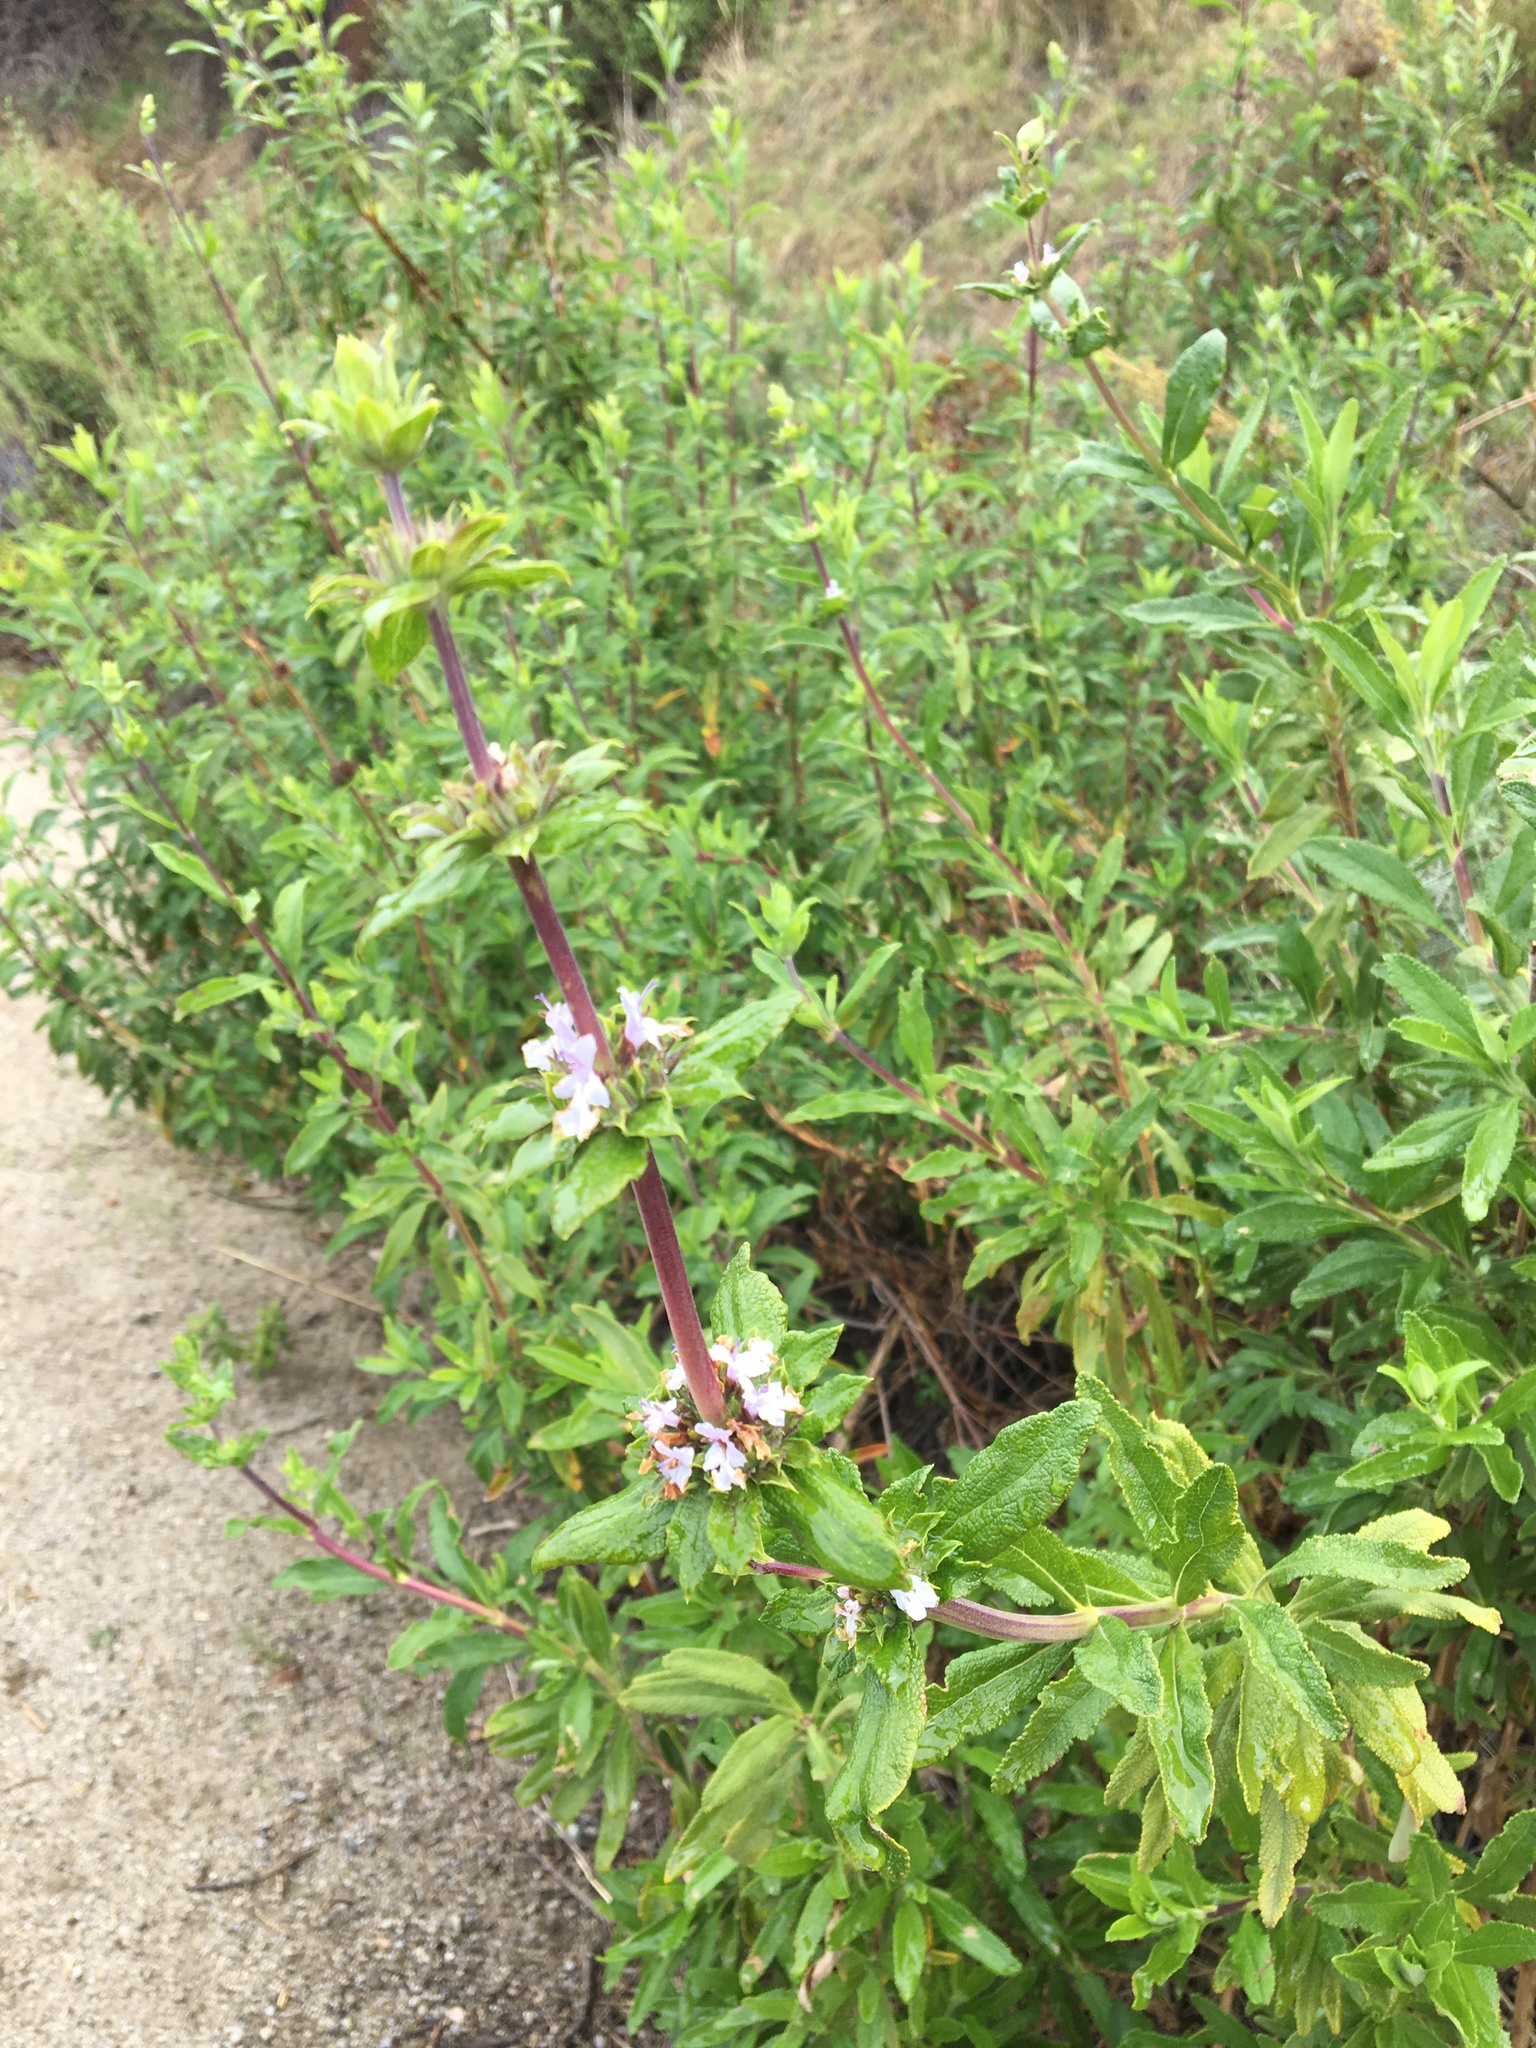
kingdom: Plantae
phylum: Tracheophyta
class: Magnoliopsida
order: Lamiales
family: Lamiaceae
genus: Salvia
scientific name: Salvia mellifera
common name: Black sage
